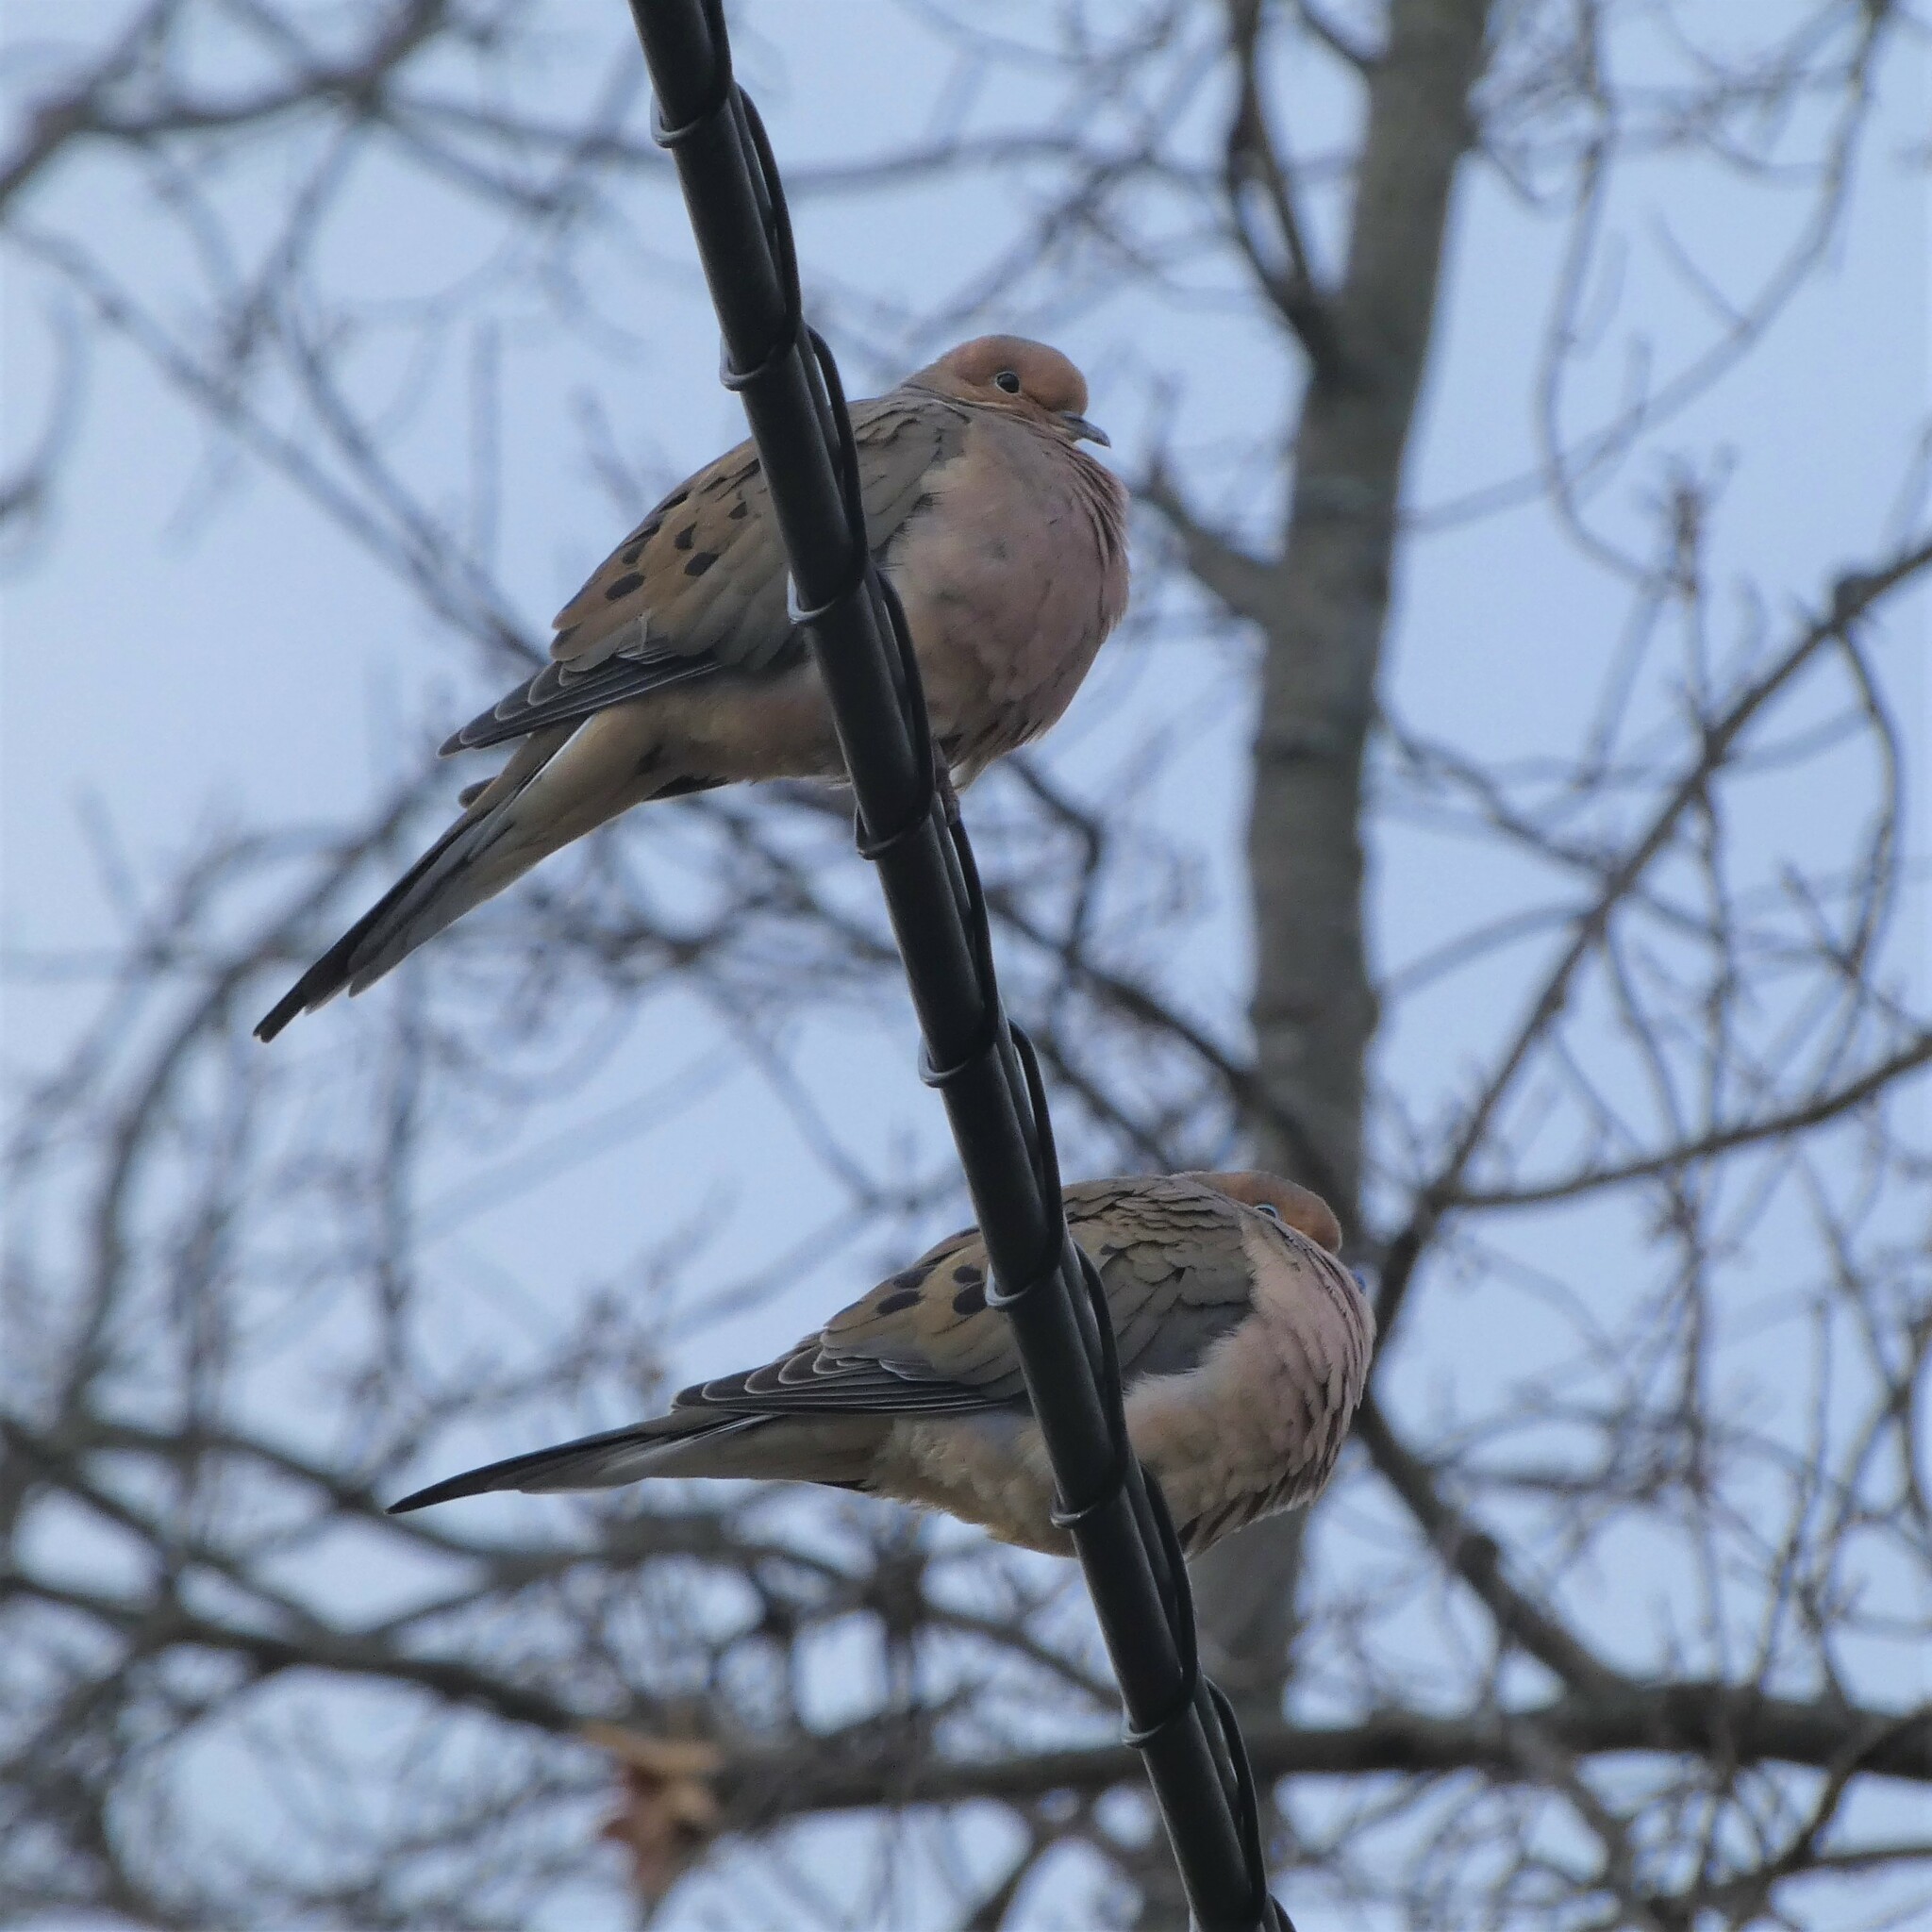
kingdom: Animalia
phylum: Chordata
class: Aves
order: Columbiformes
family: Columbidae
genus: Zenaida
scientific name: Zenaida macroura
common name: Mourning dove
